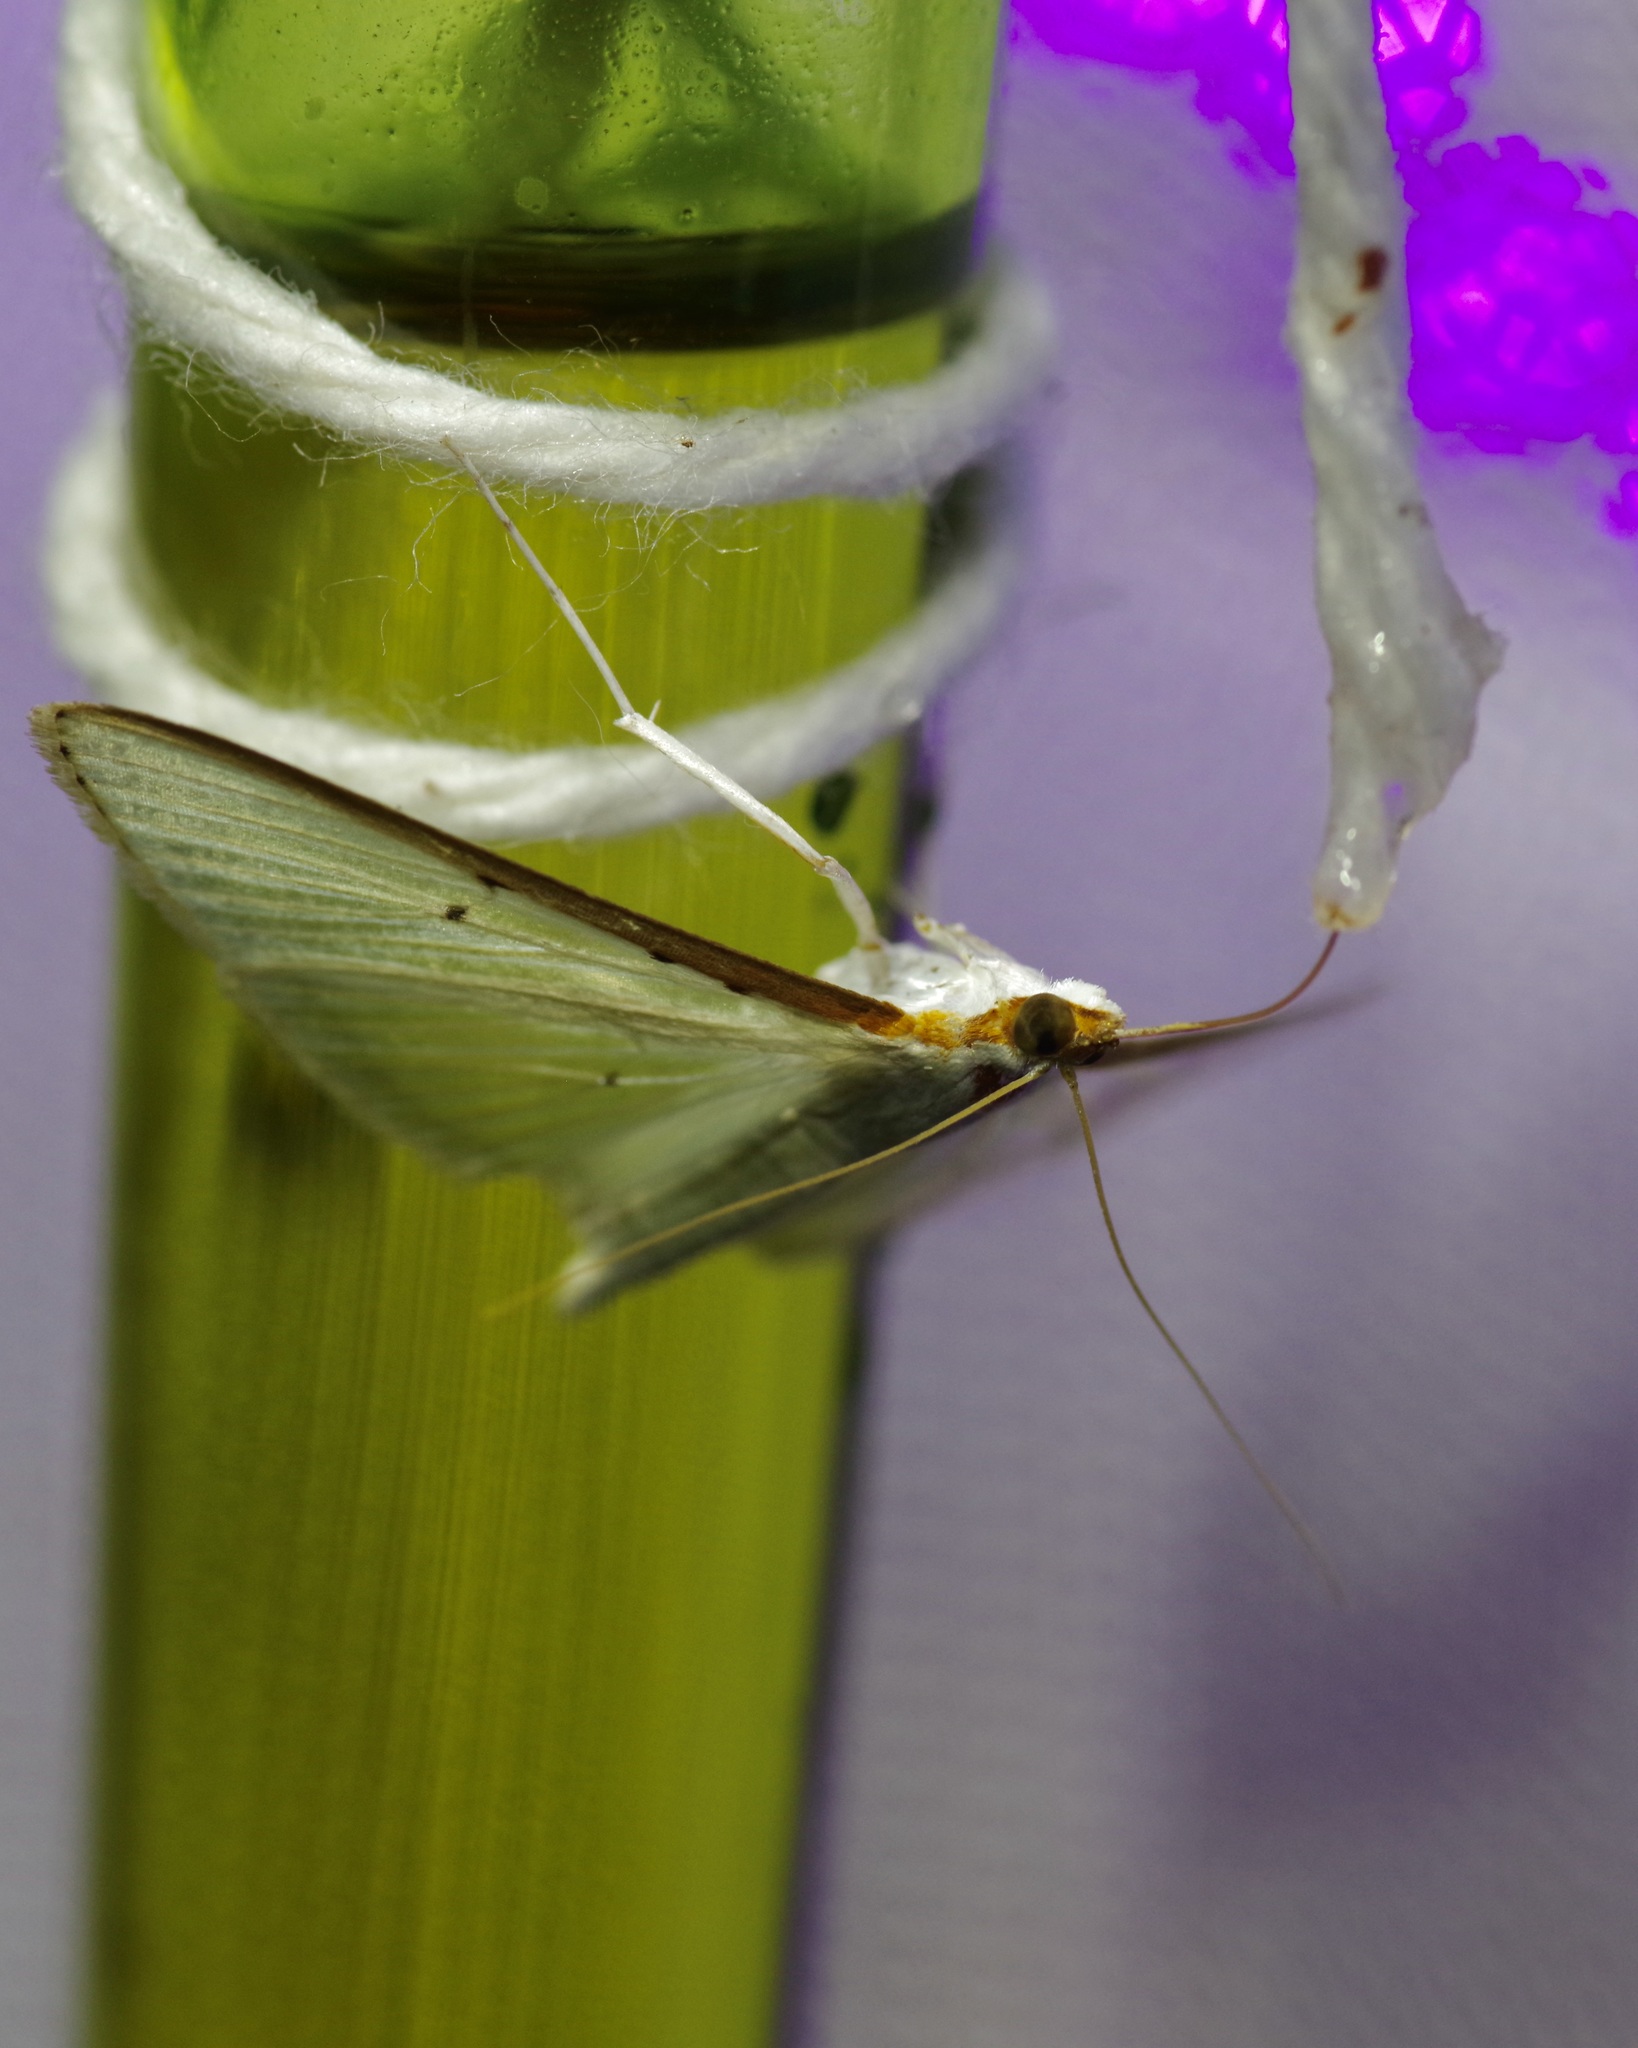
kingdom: Animalia
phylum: Arthropoda
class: Insecta
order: Lepidoptera
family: Crambidae
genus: Palpita
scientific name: Palpita quadristigmalis
